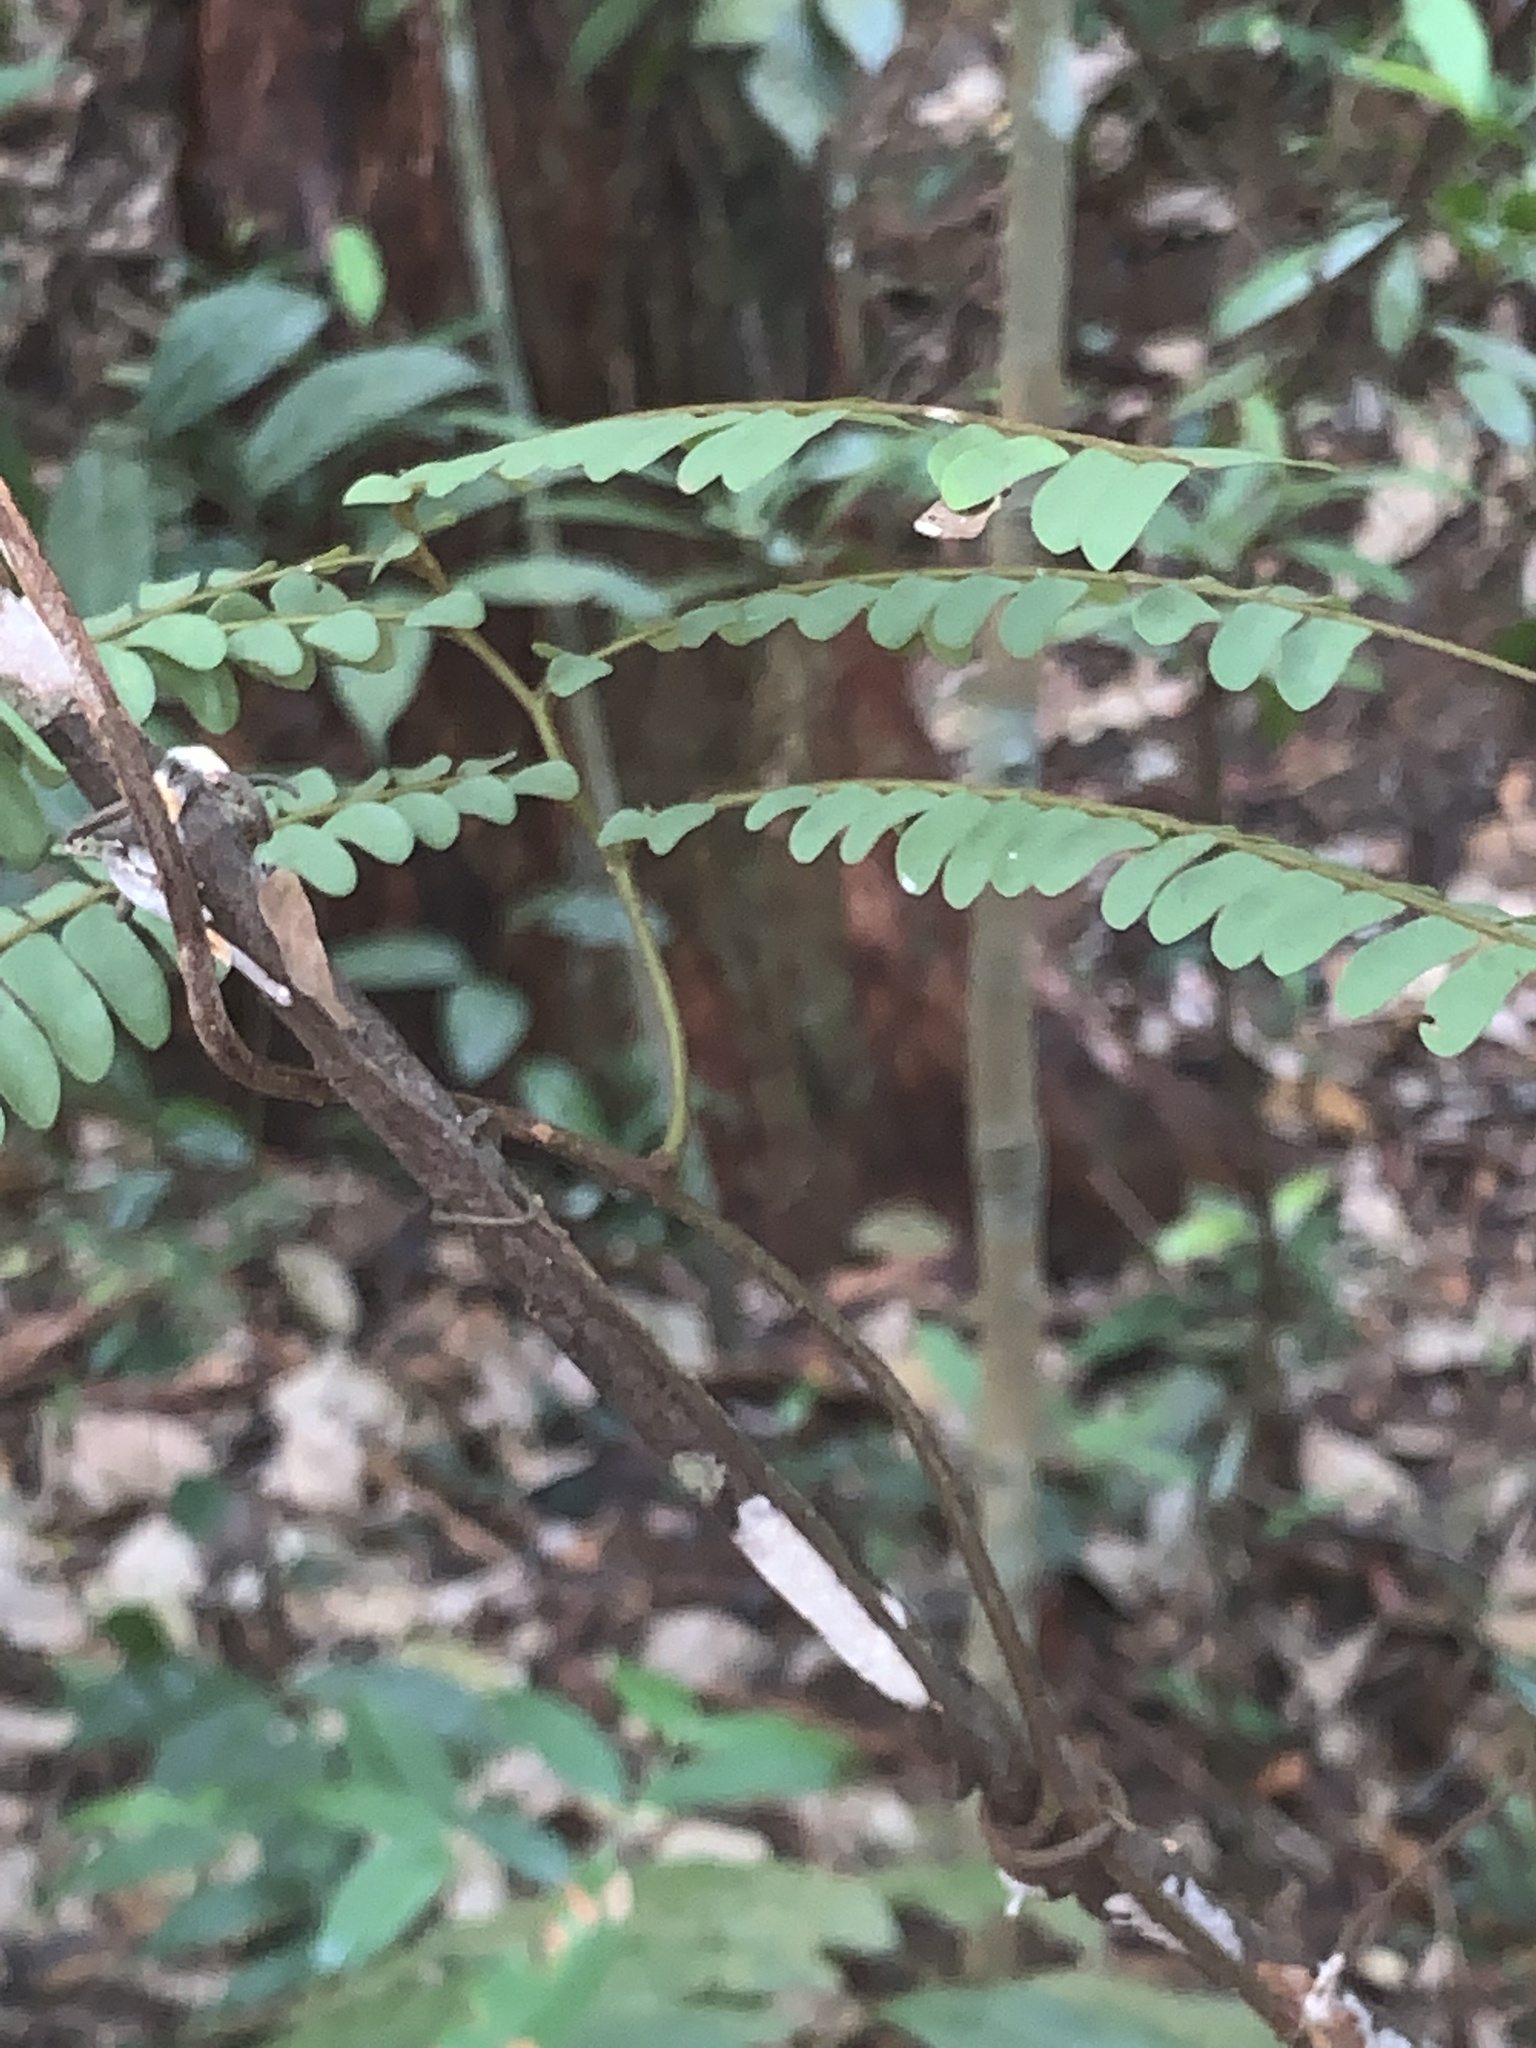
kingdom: Plantae
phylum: Tracheophyta
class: Magnoliopsida
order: Oxalidales
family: Connaraceae
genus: Rourea
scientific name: Rourea fulgens
